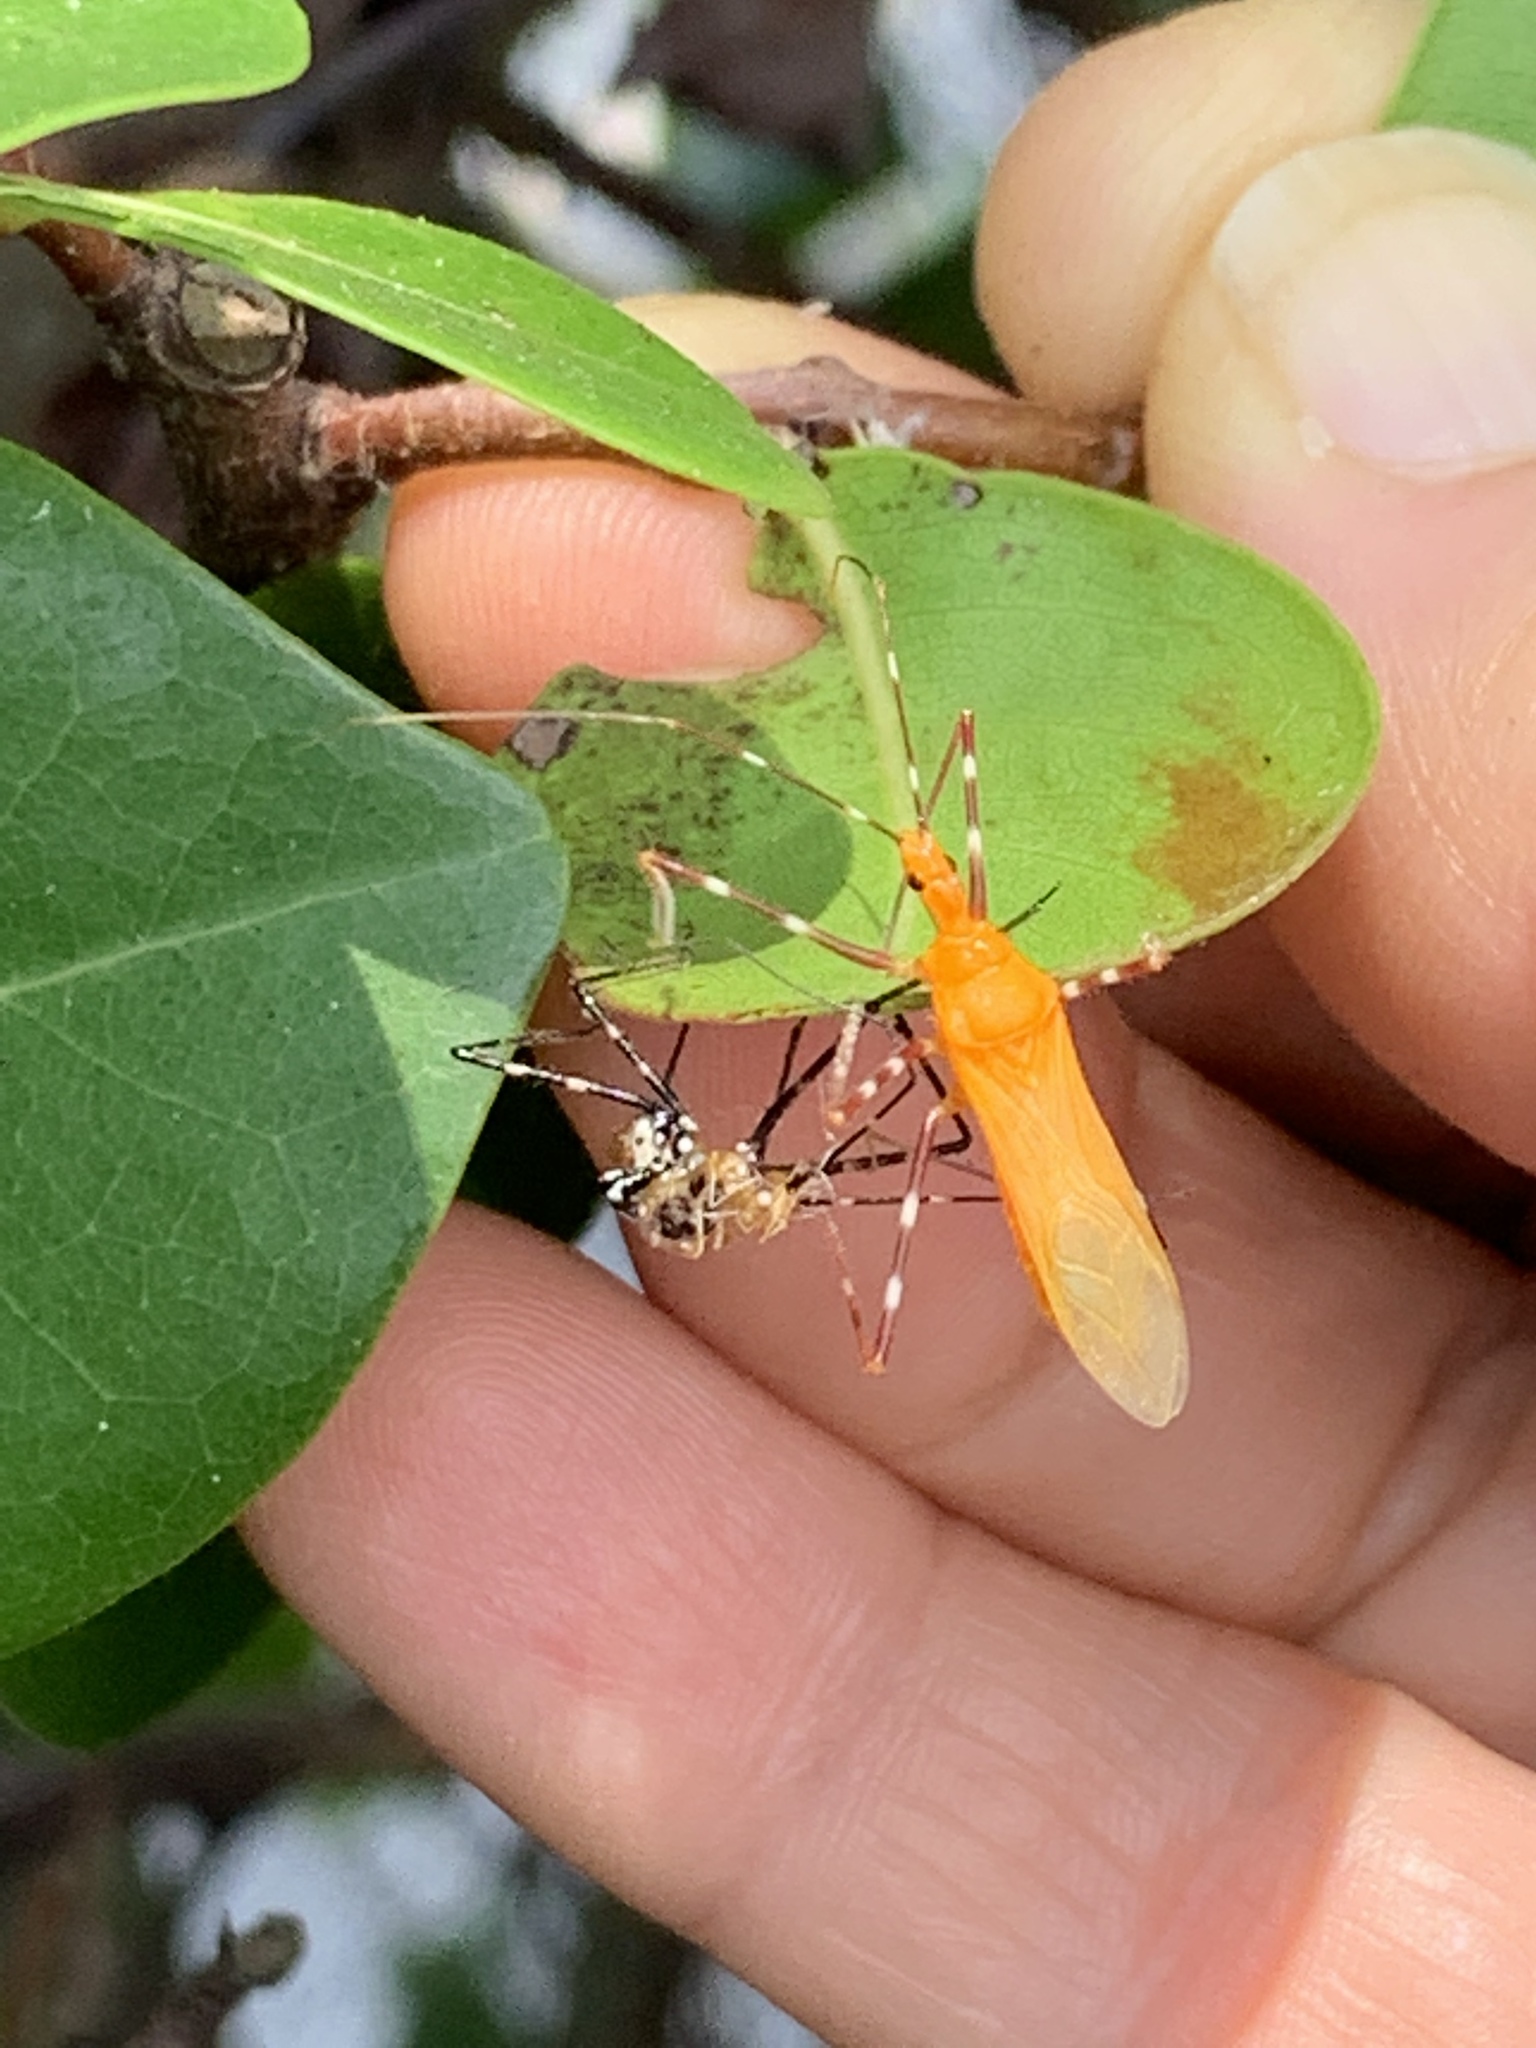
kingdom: Animalia
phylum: Arthropoda
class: Insecta
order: Hemiptera
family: Reduviidae
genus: Zelus
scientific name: Zelus longipes
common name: Milkweed assassin bug
